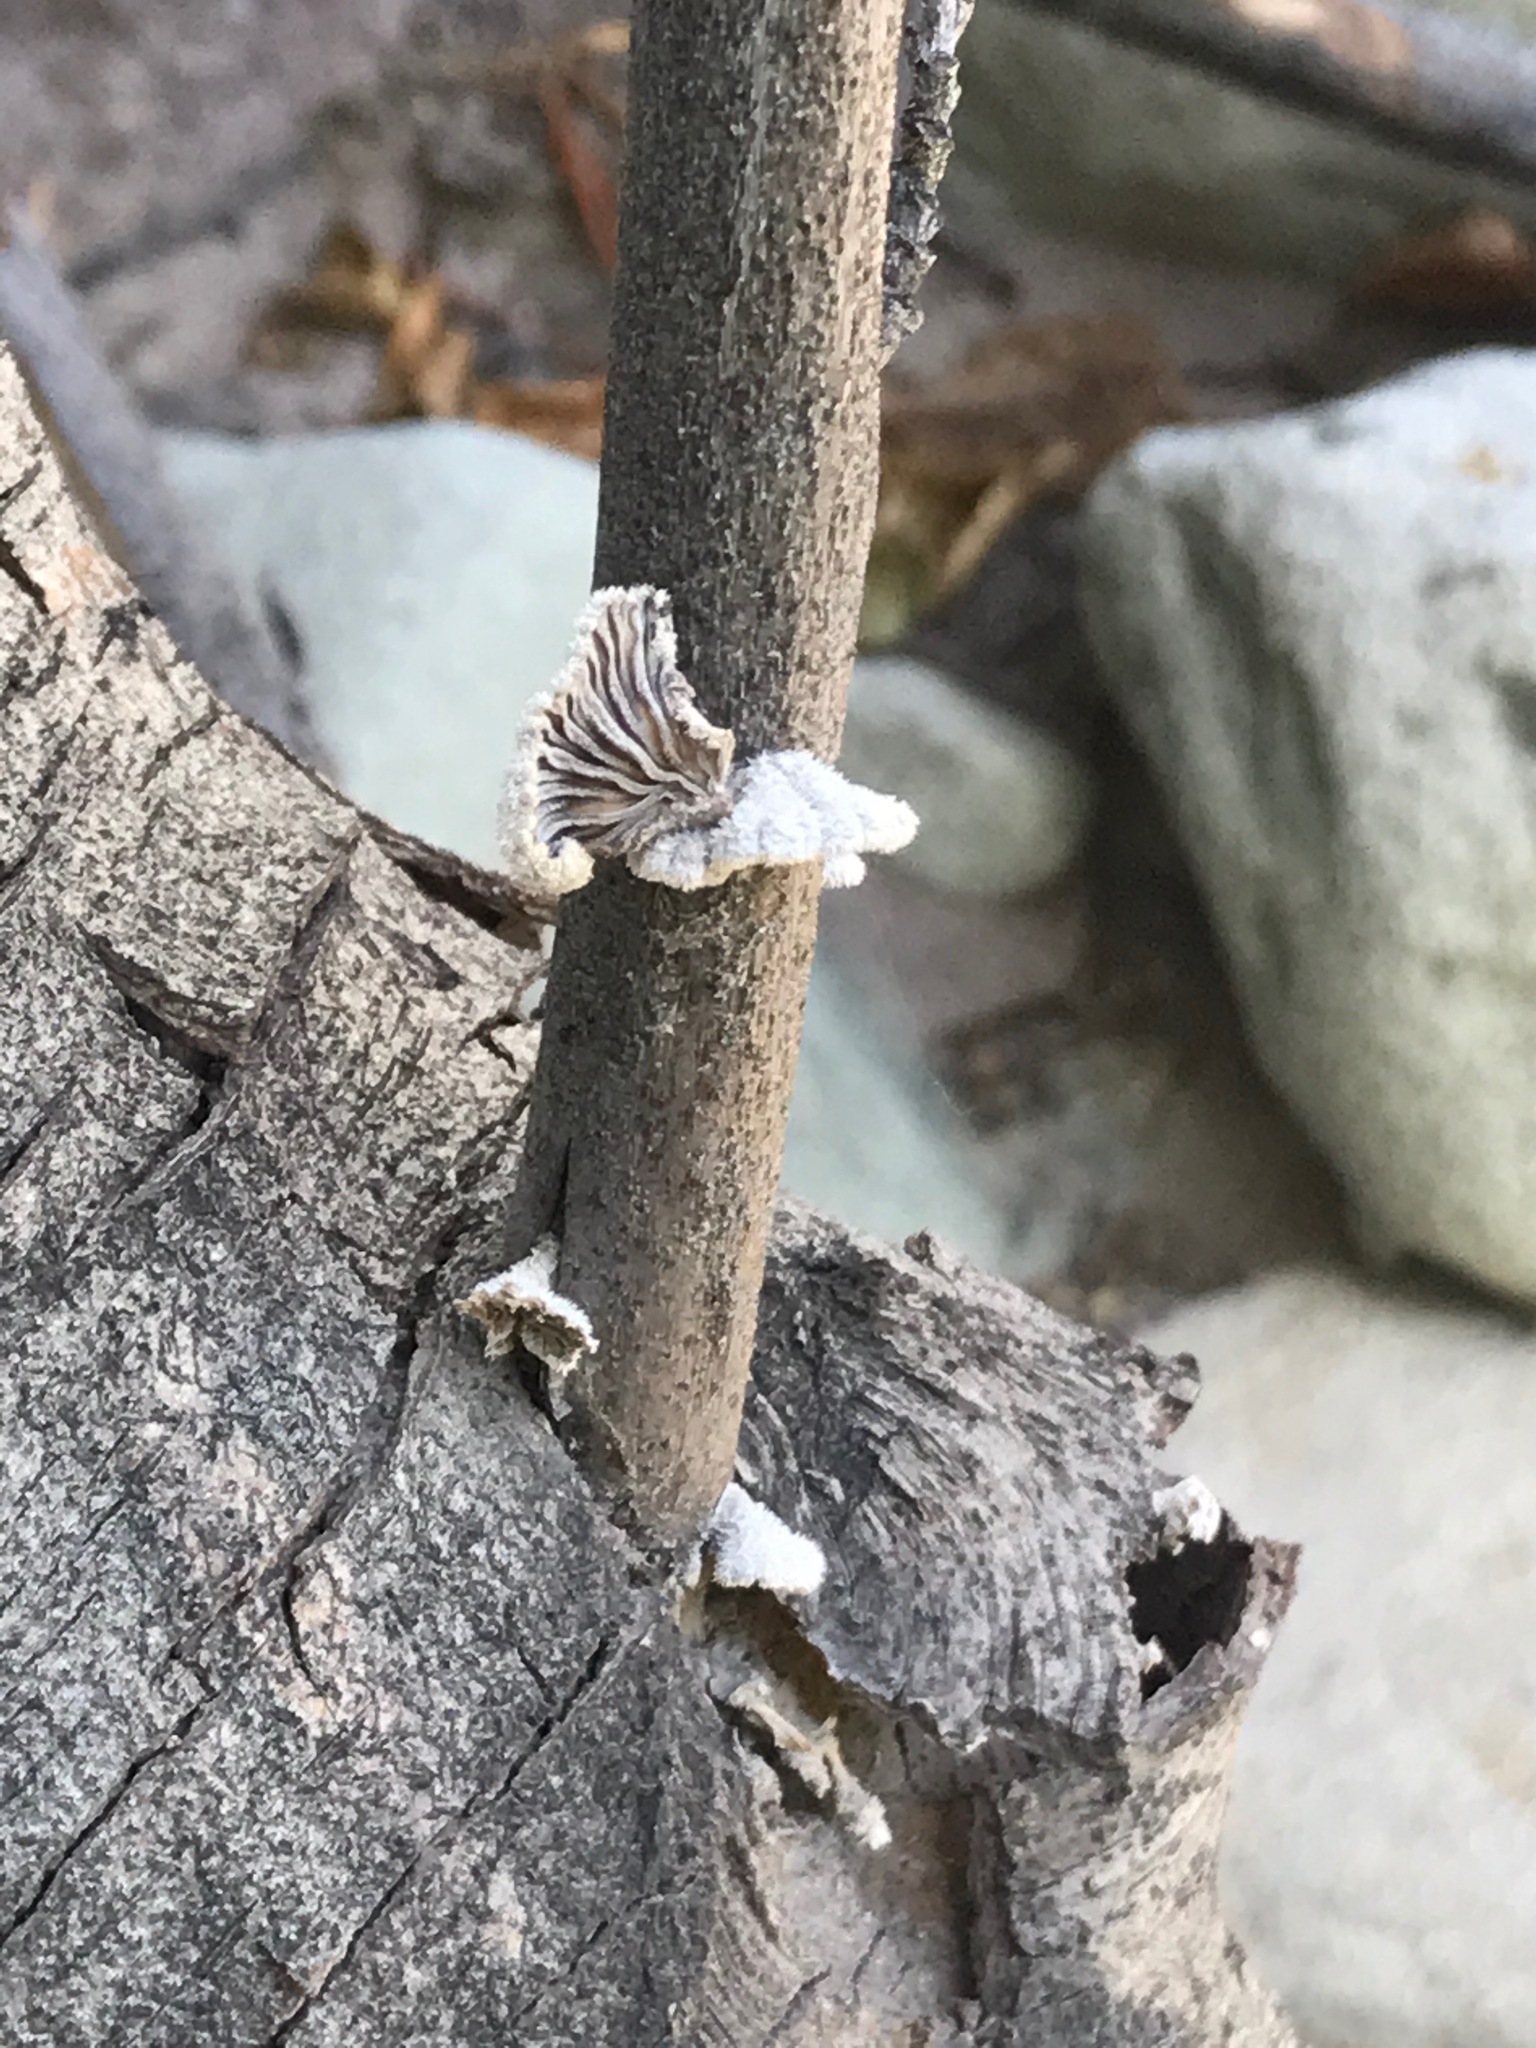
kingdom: Fungi
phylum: Basidiomycota
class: Agaricomycetes
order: Agaricales
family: Schizophyllaceae
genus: Schizophyllum
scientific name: Schizophyllum commune
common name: Common porecrust
